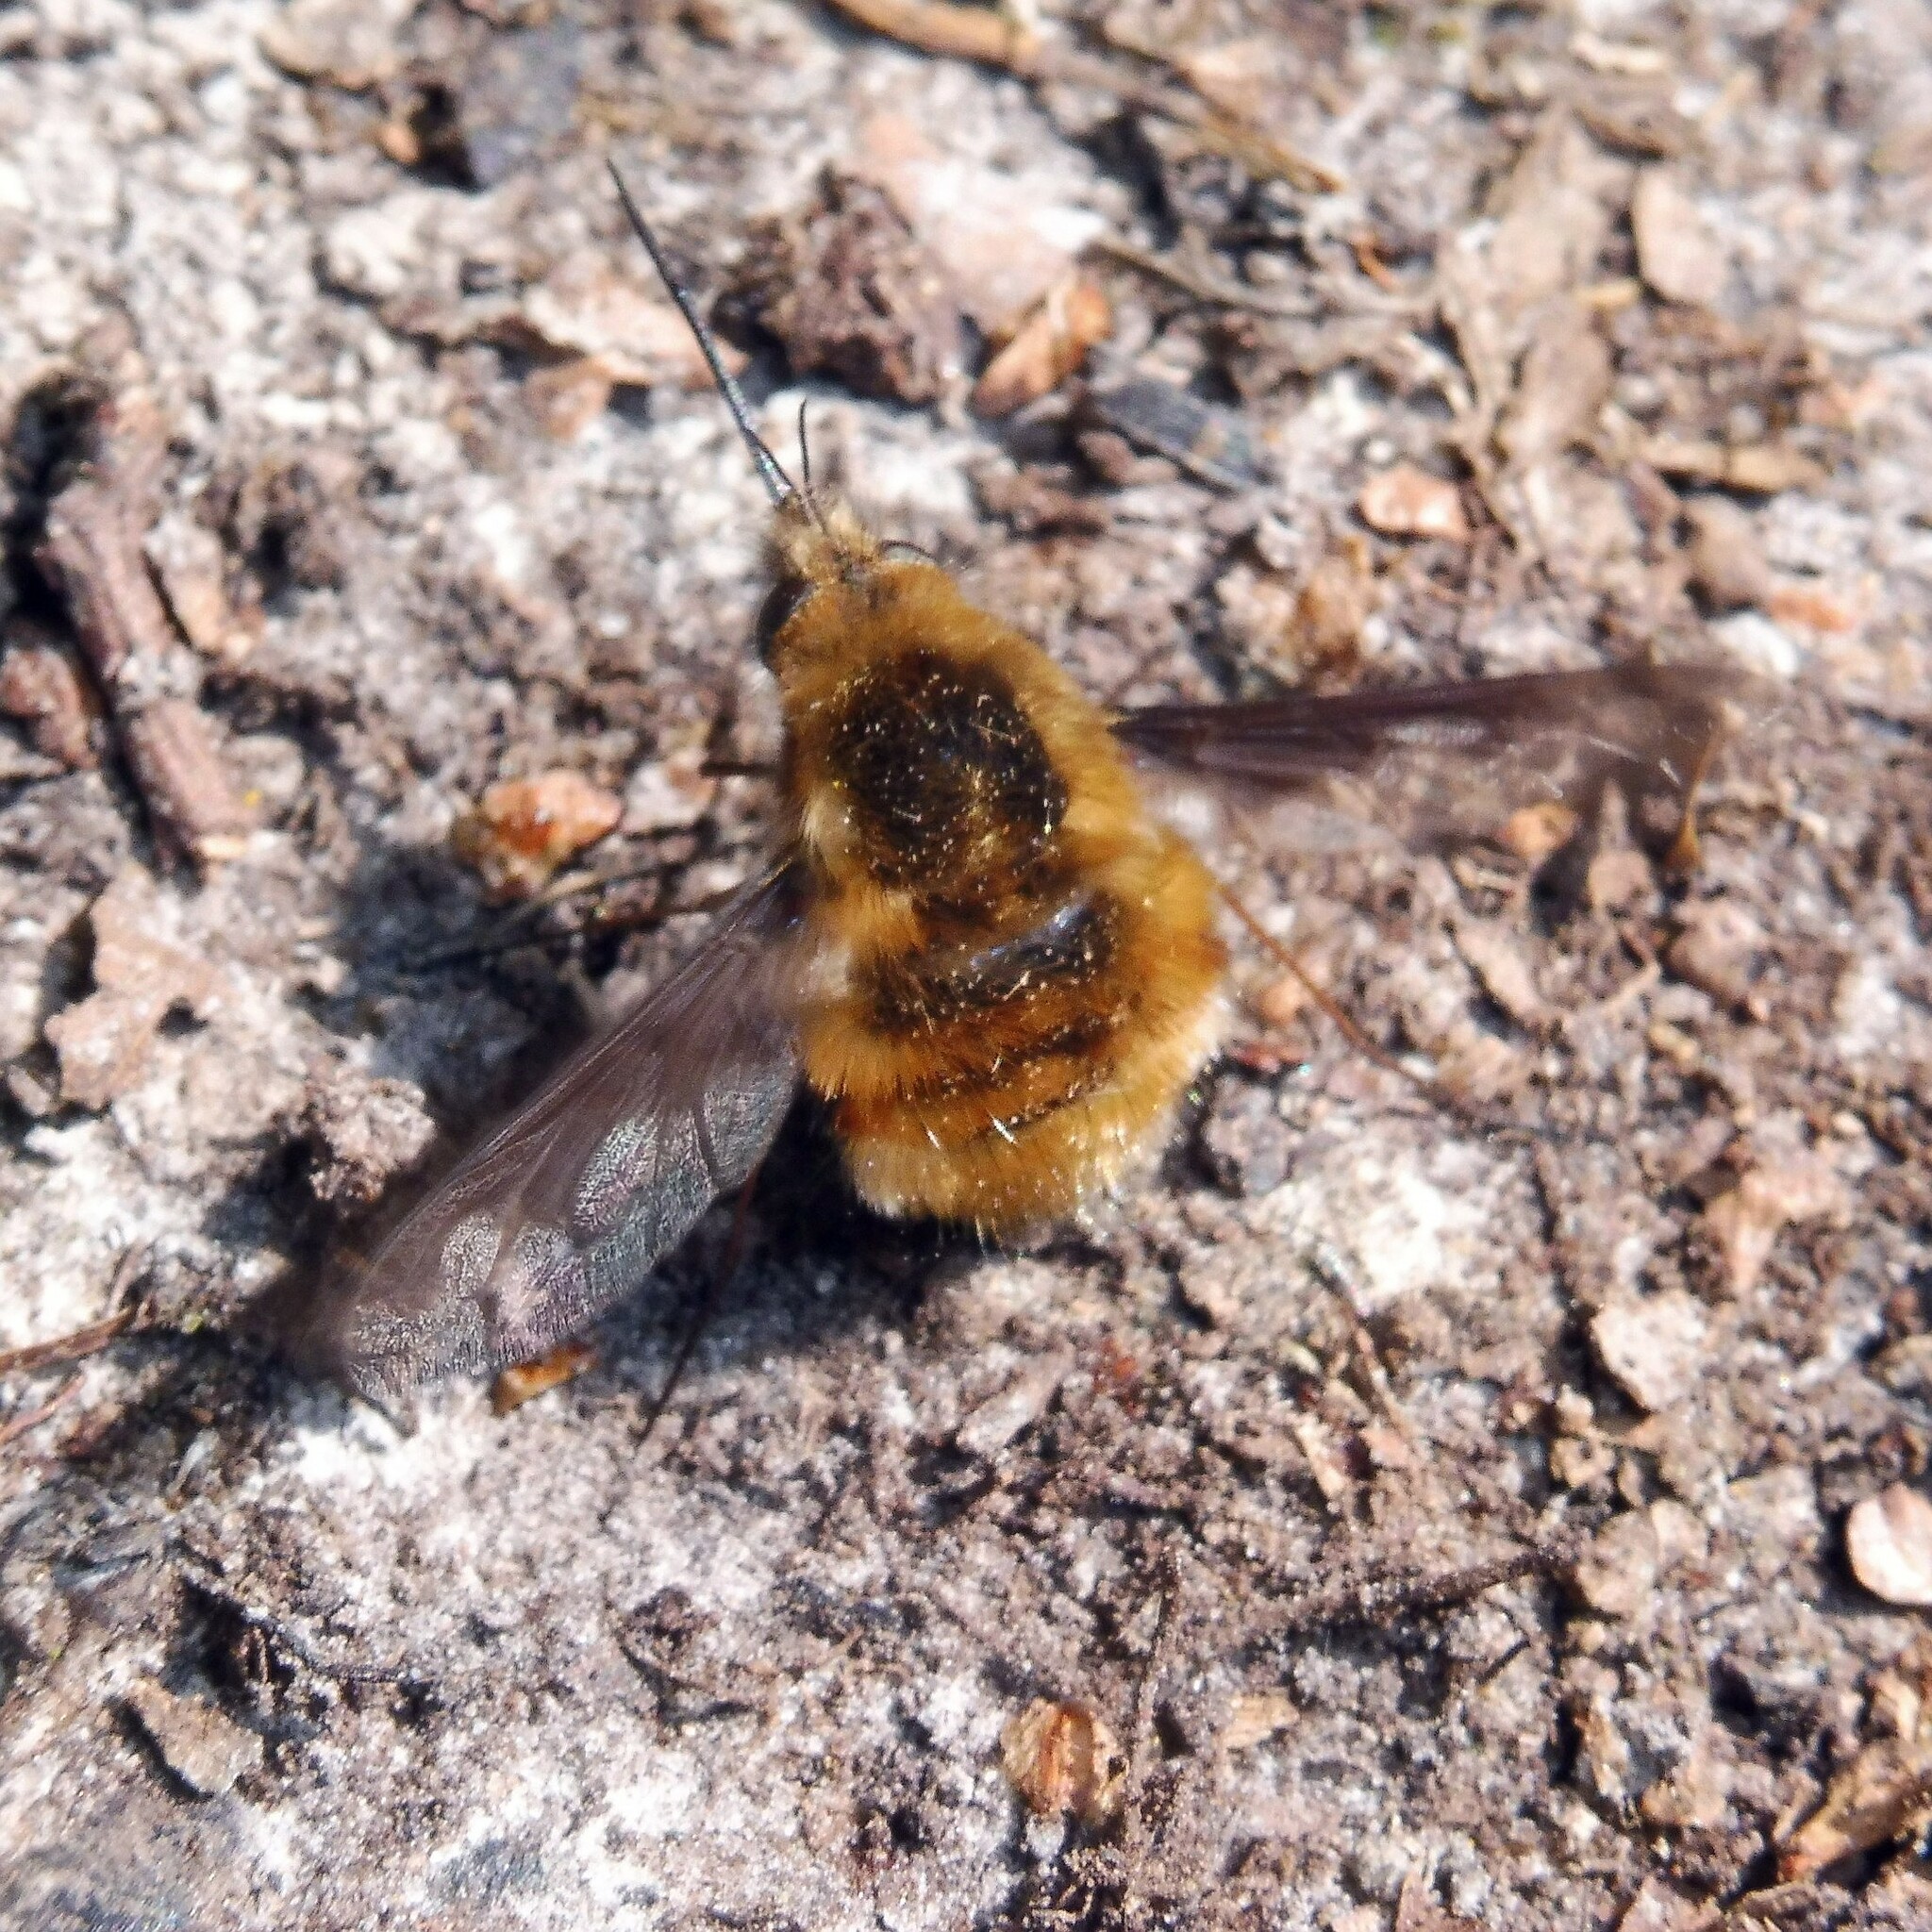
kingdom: Animalia
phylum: Arthropoda
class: Insecta
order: Diptera
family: Bombyliidae
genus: Bombylius
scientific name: Bombylius major
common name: Bee fly
